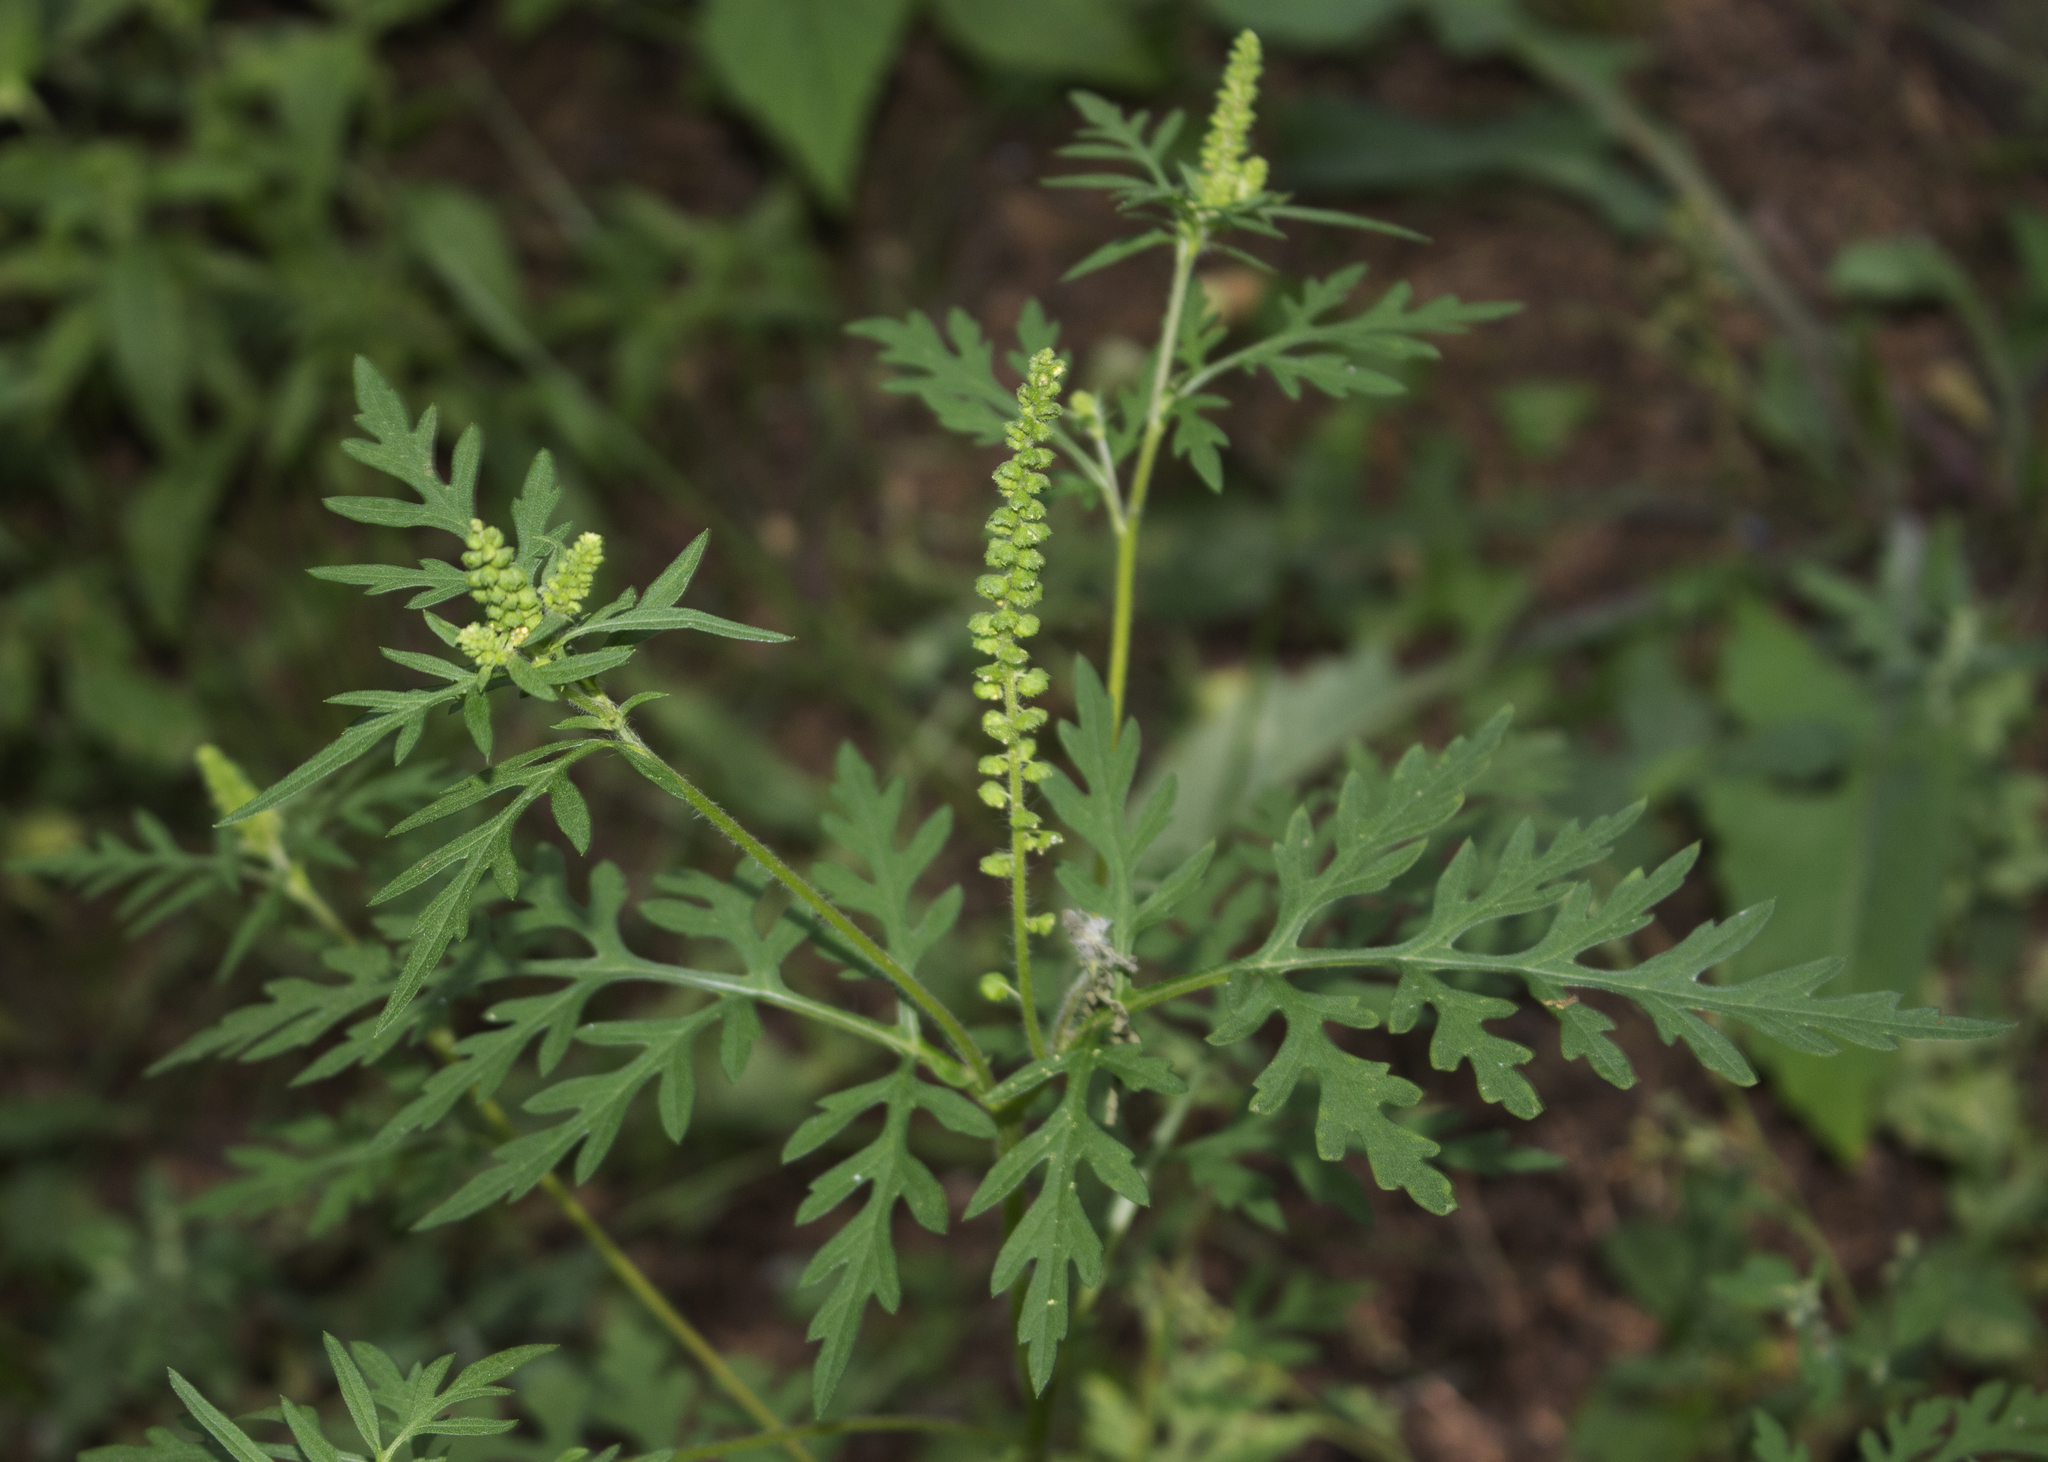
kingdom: Plantae
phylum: Tracheophyta
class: Magnoliopsida
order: Asterales
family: Asteraceae
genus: Ambrosia
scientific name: Ambrosia artemisiifolia
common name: Annual ragweed
